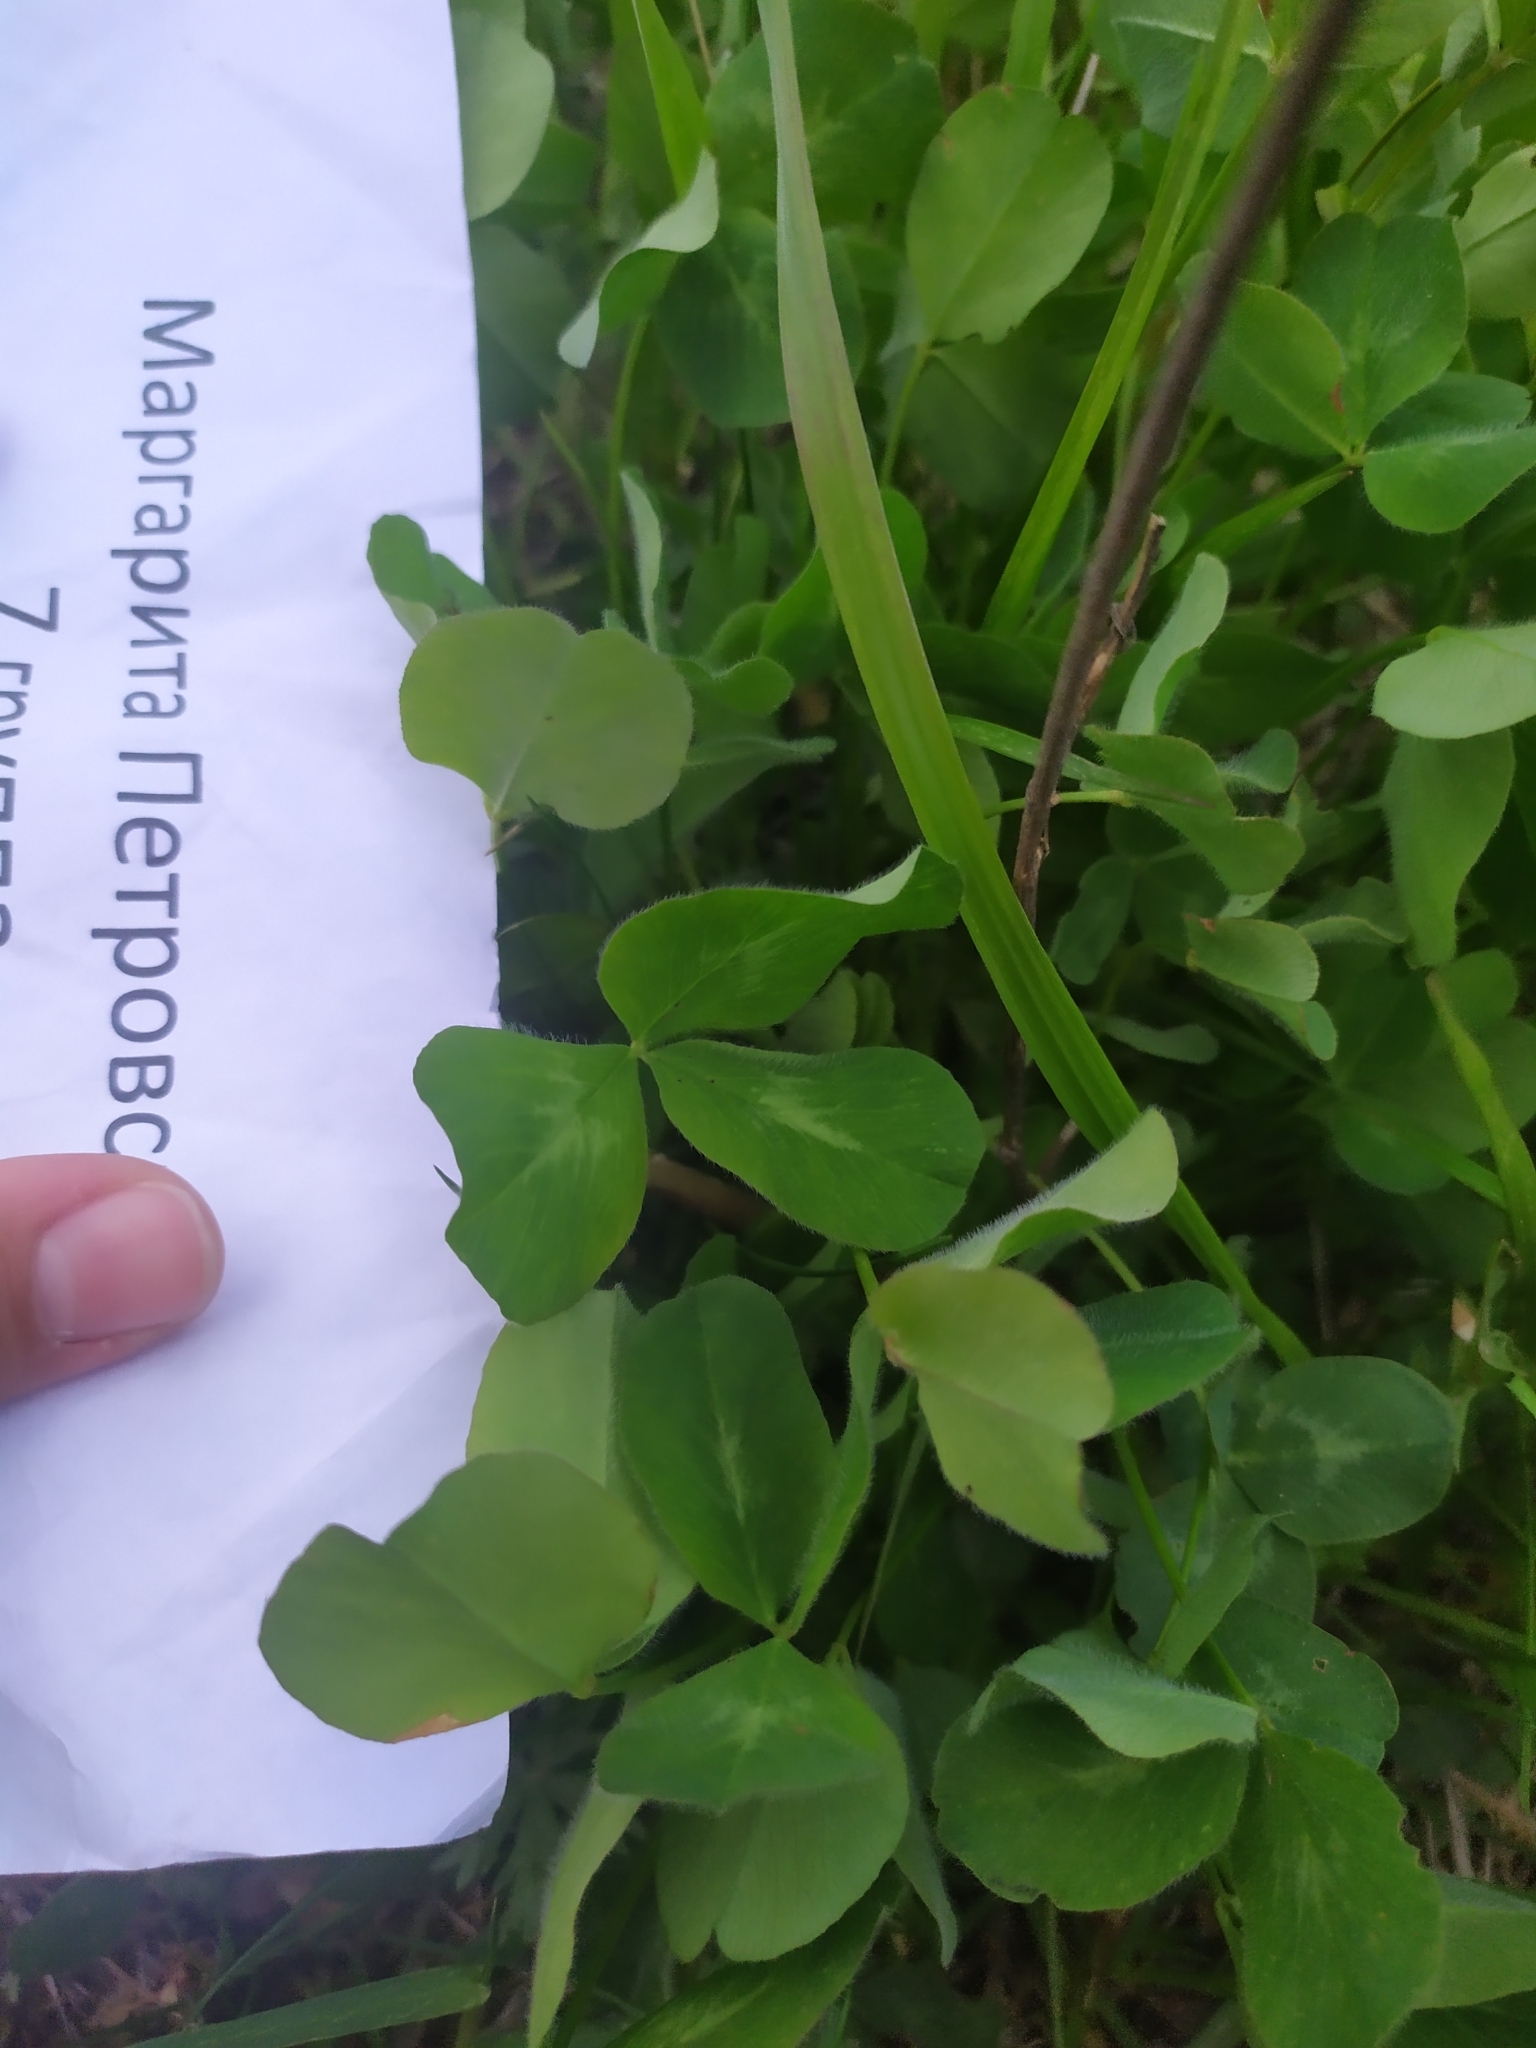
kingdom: Plantae
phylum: Tracheophyta
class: Magnoliopsida
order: Fabales
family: Fabaceae
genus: Trifolium
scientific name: Trifolium pratense
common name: Red clover
